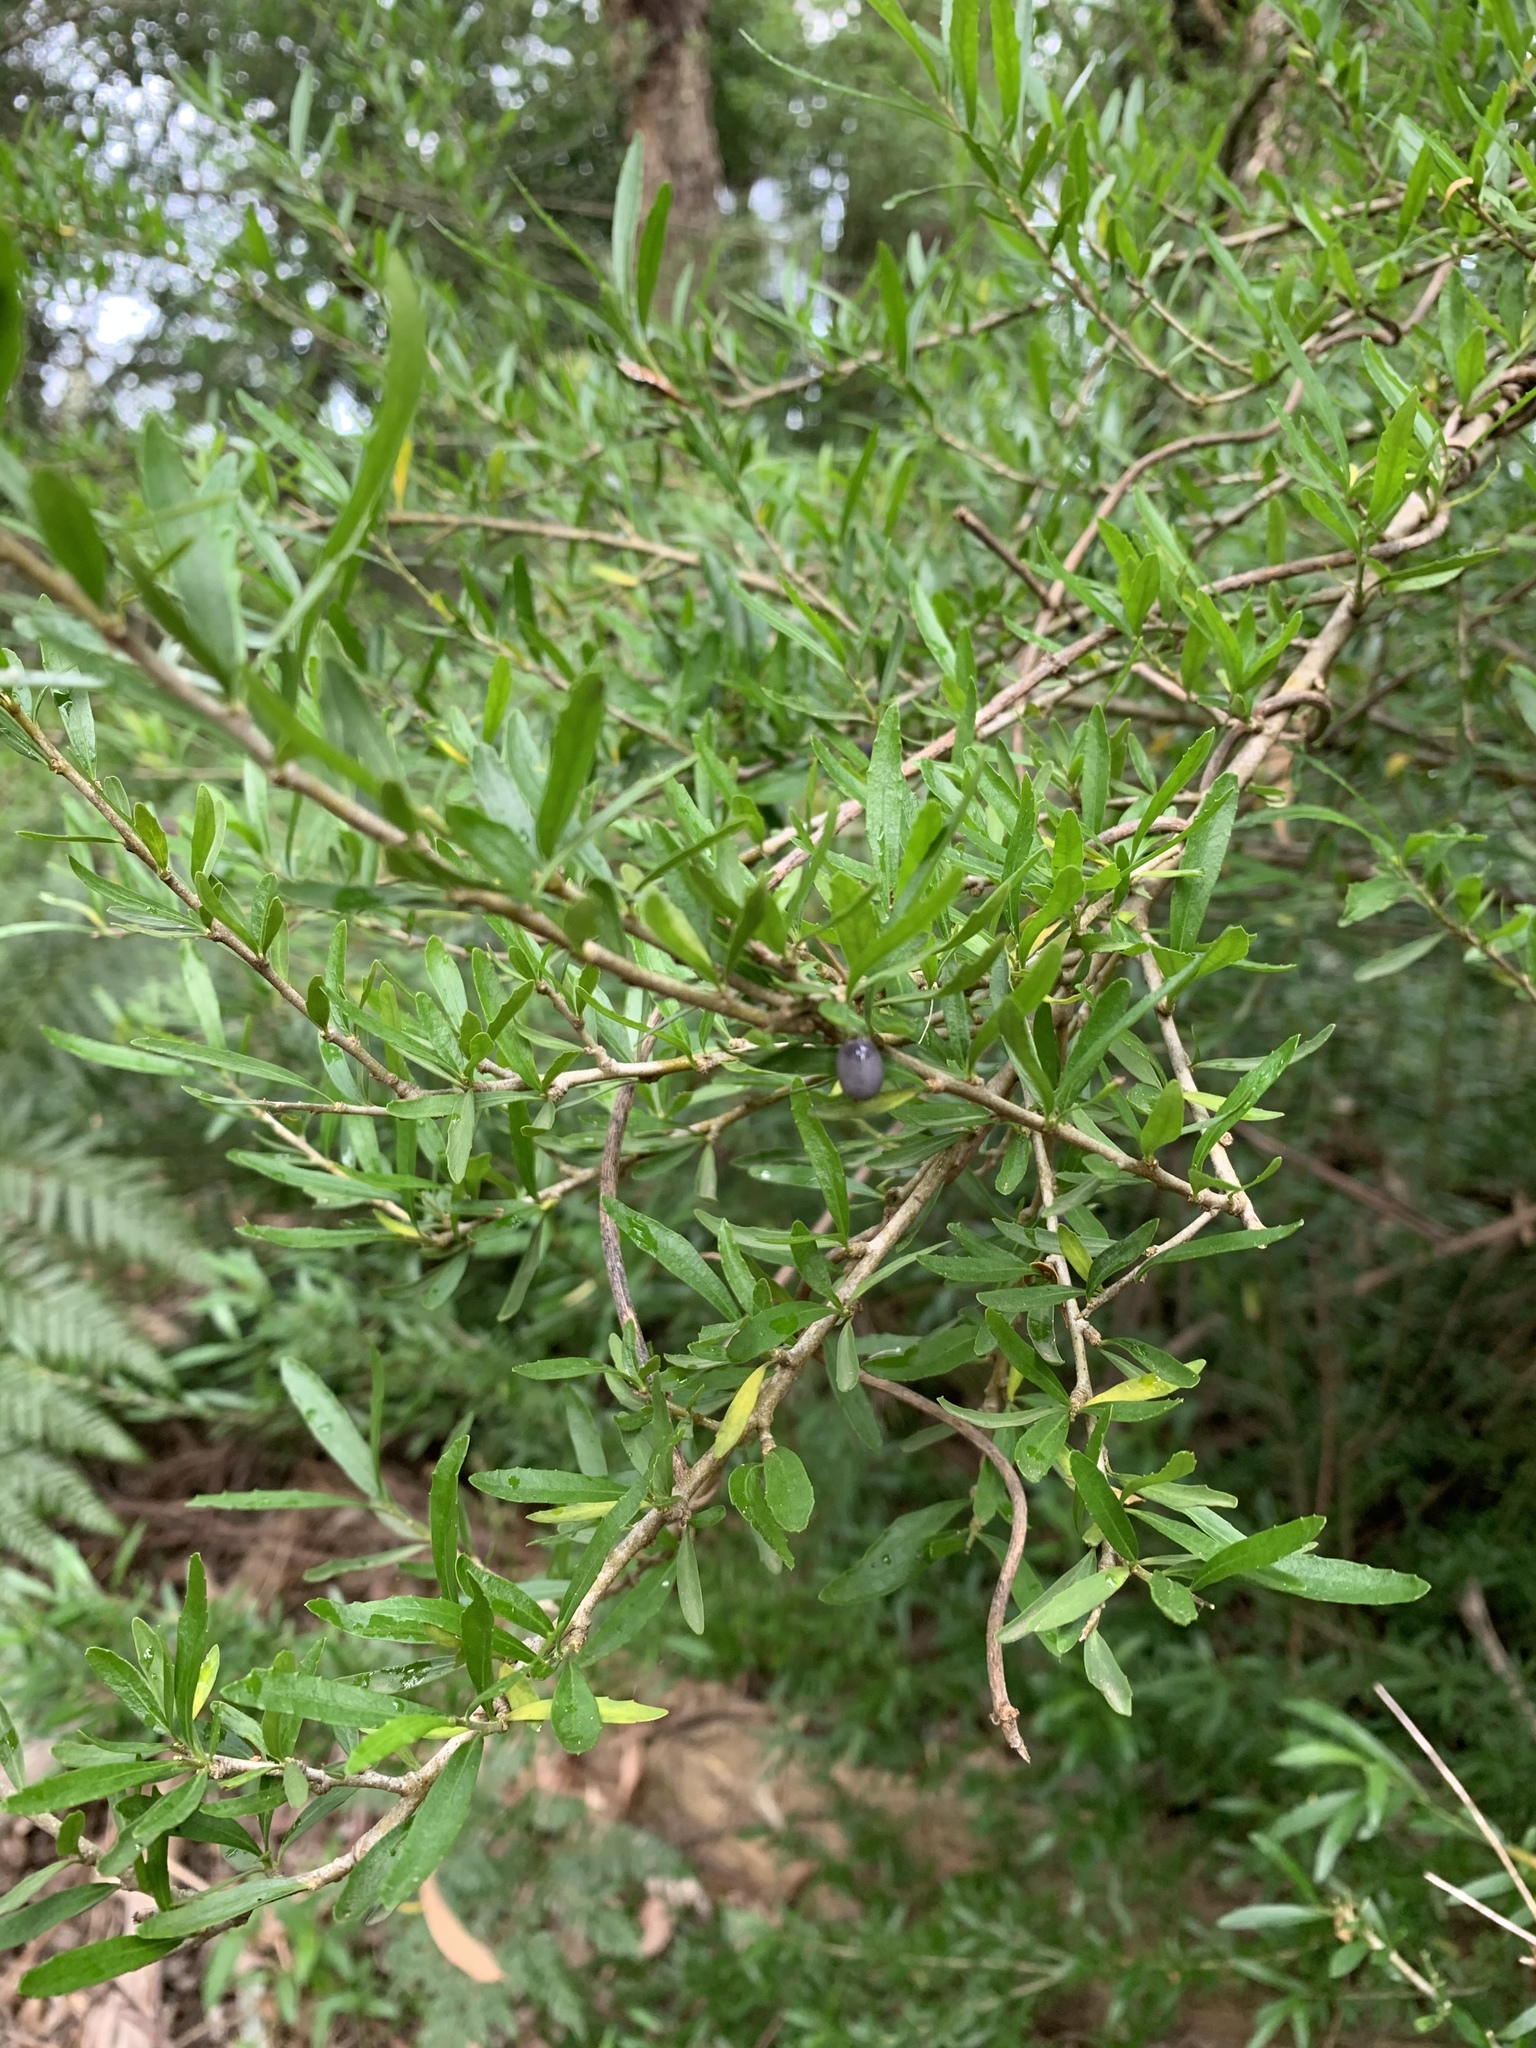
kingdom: Plantae
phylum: Tracheophyta
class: Magnoliopsida
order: Malpighiales
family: Violaceae
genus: Melicytus
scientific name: Melicytus dentatus
